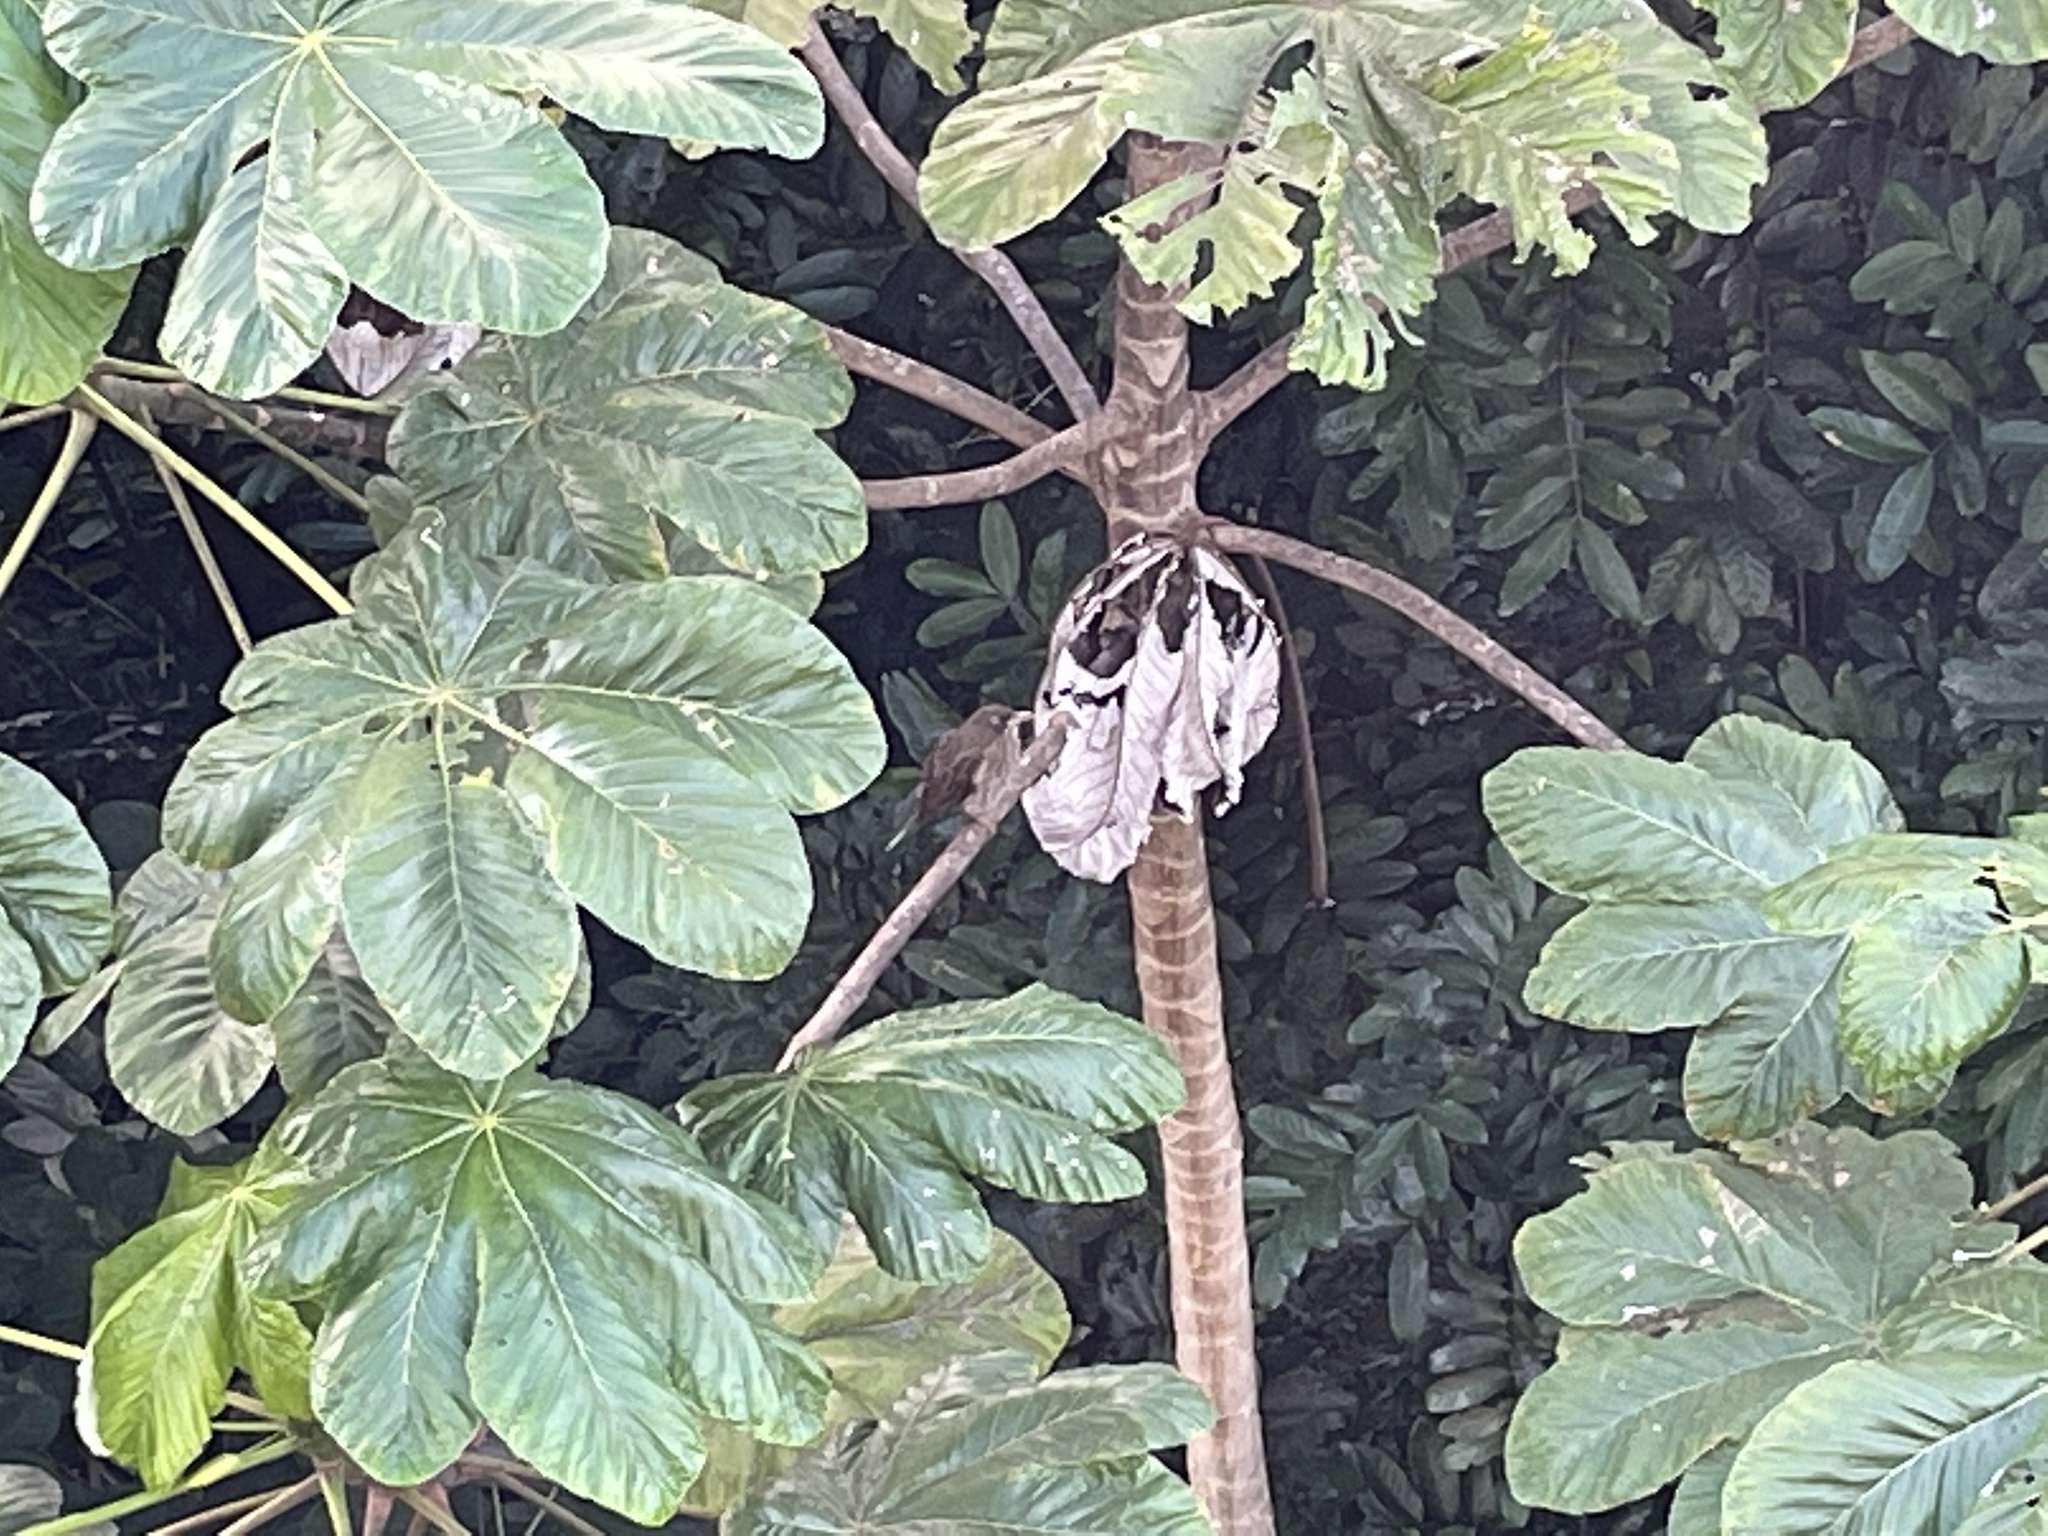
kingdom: Animalia
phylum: Chordata
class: Aves
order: Passeriformes
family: Mimidae
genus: Margarops
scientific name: Margarops fuscatus
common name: Pearly-eyed thrasher
